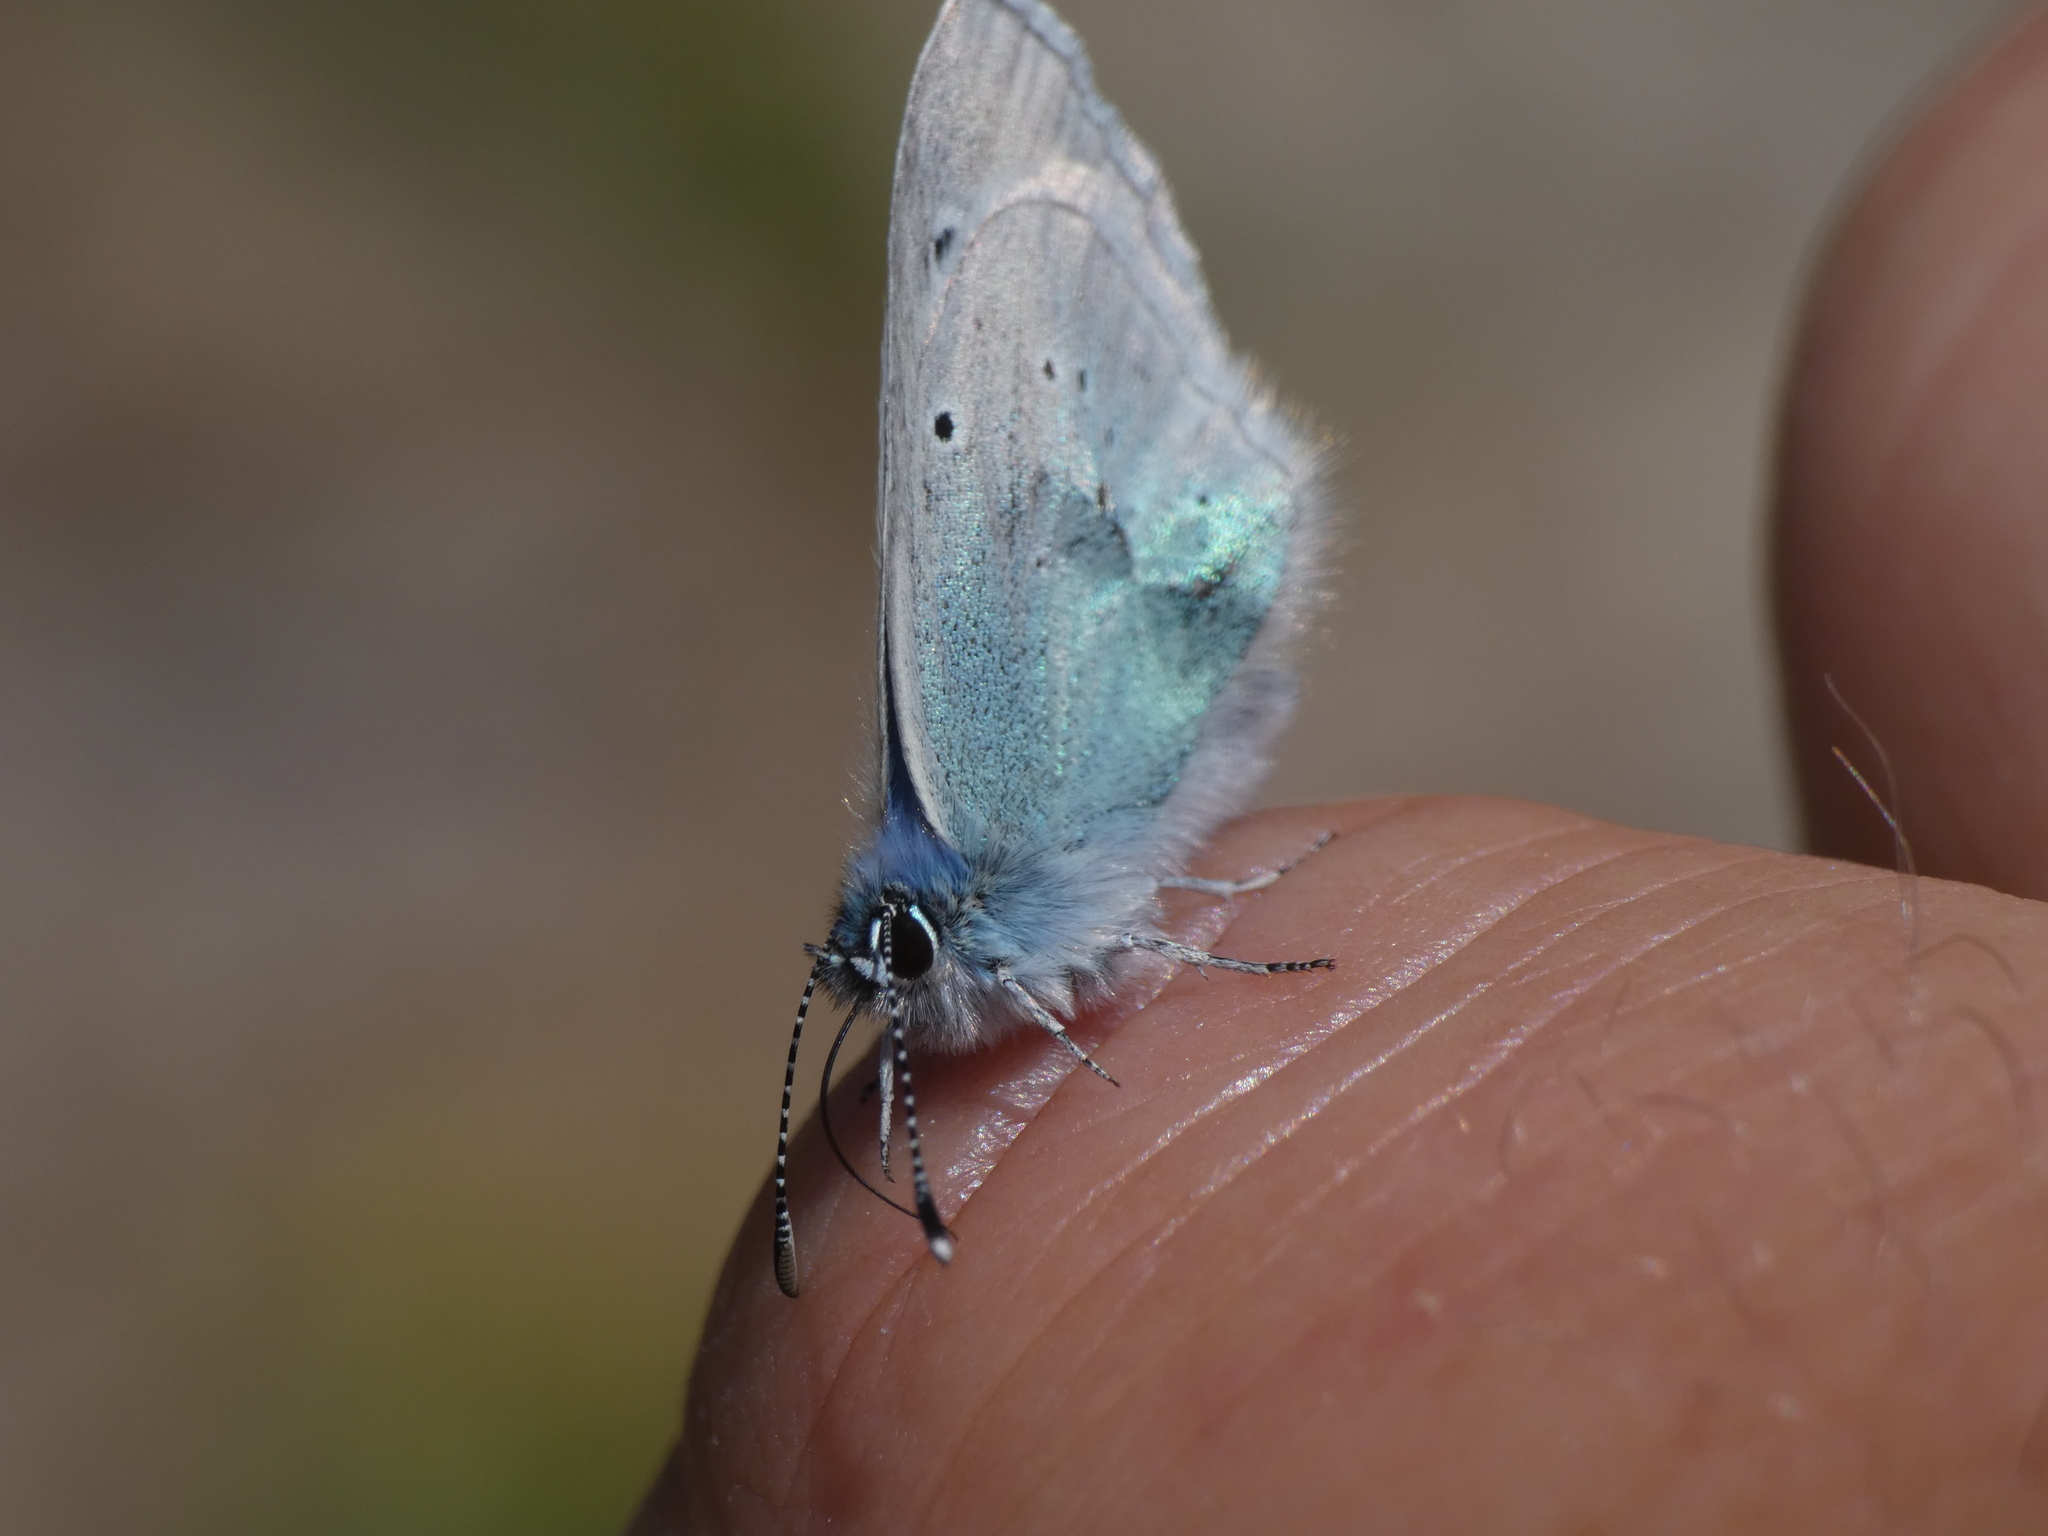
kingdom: Animalia
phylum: Arthropoda
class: Insecta
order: Lepidoptera
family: Lycaenidae
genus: Glaucopsyche
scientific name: Glaucopsyche alexis
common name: Green-underside blue
